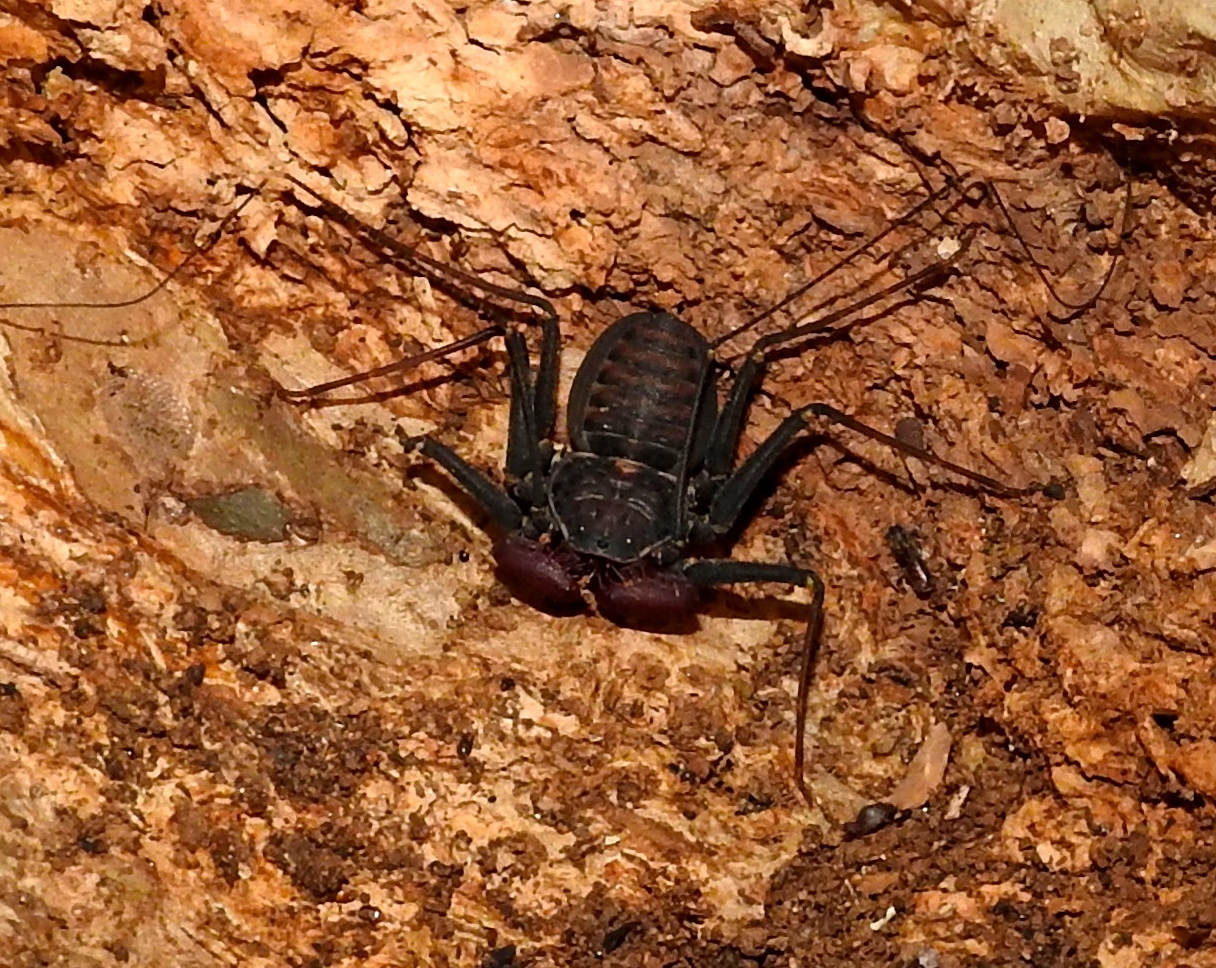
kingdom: Animalia
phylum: Arthropoda
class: Arachnida
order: Amblypygi
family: Phrynidae
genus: Phrynus
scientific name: Phrynus operculatus
